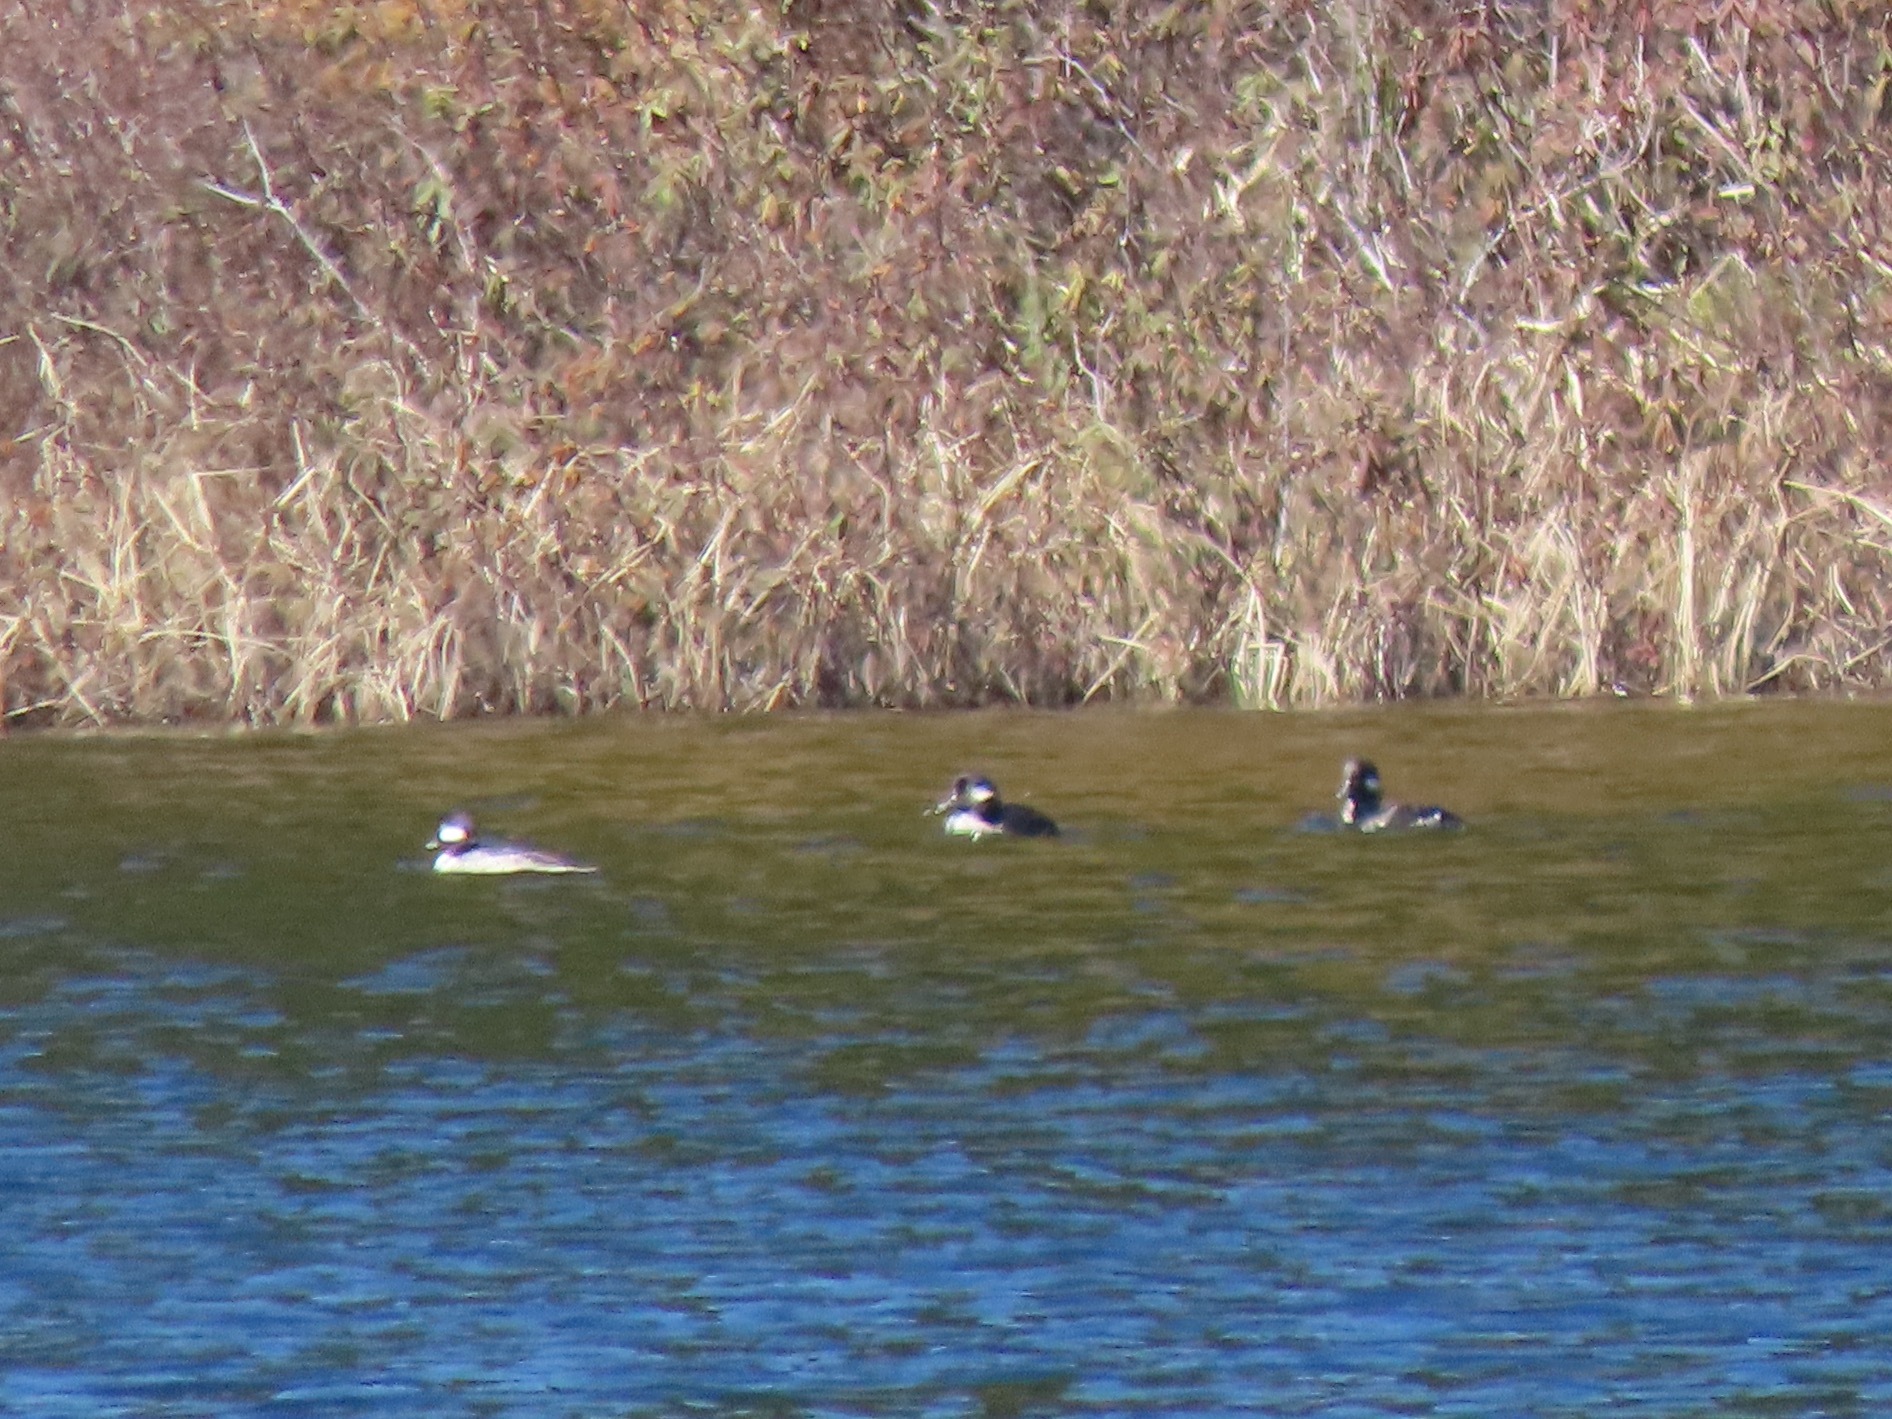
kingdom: Animalia
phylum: Chordata
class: Aves
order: Anseriformes
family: Anatidae
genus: Bucephala
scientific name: Bucephala albeola
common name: Bufflehead
